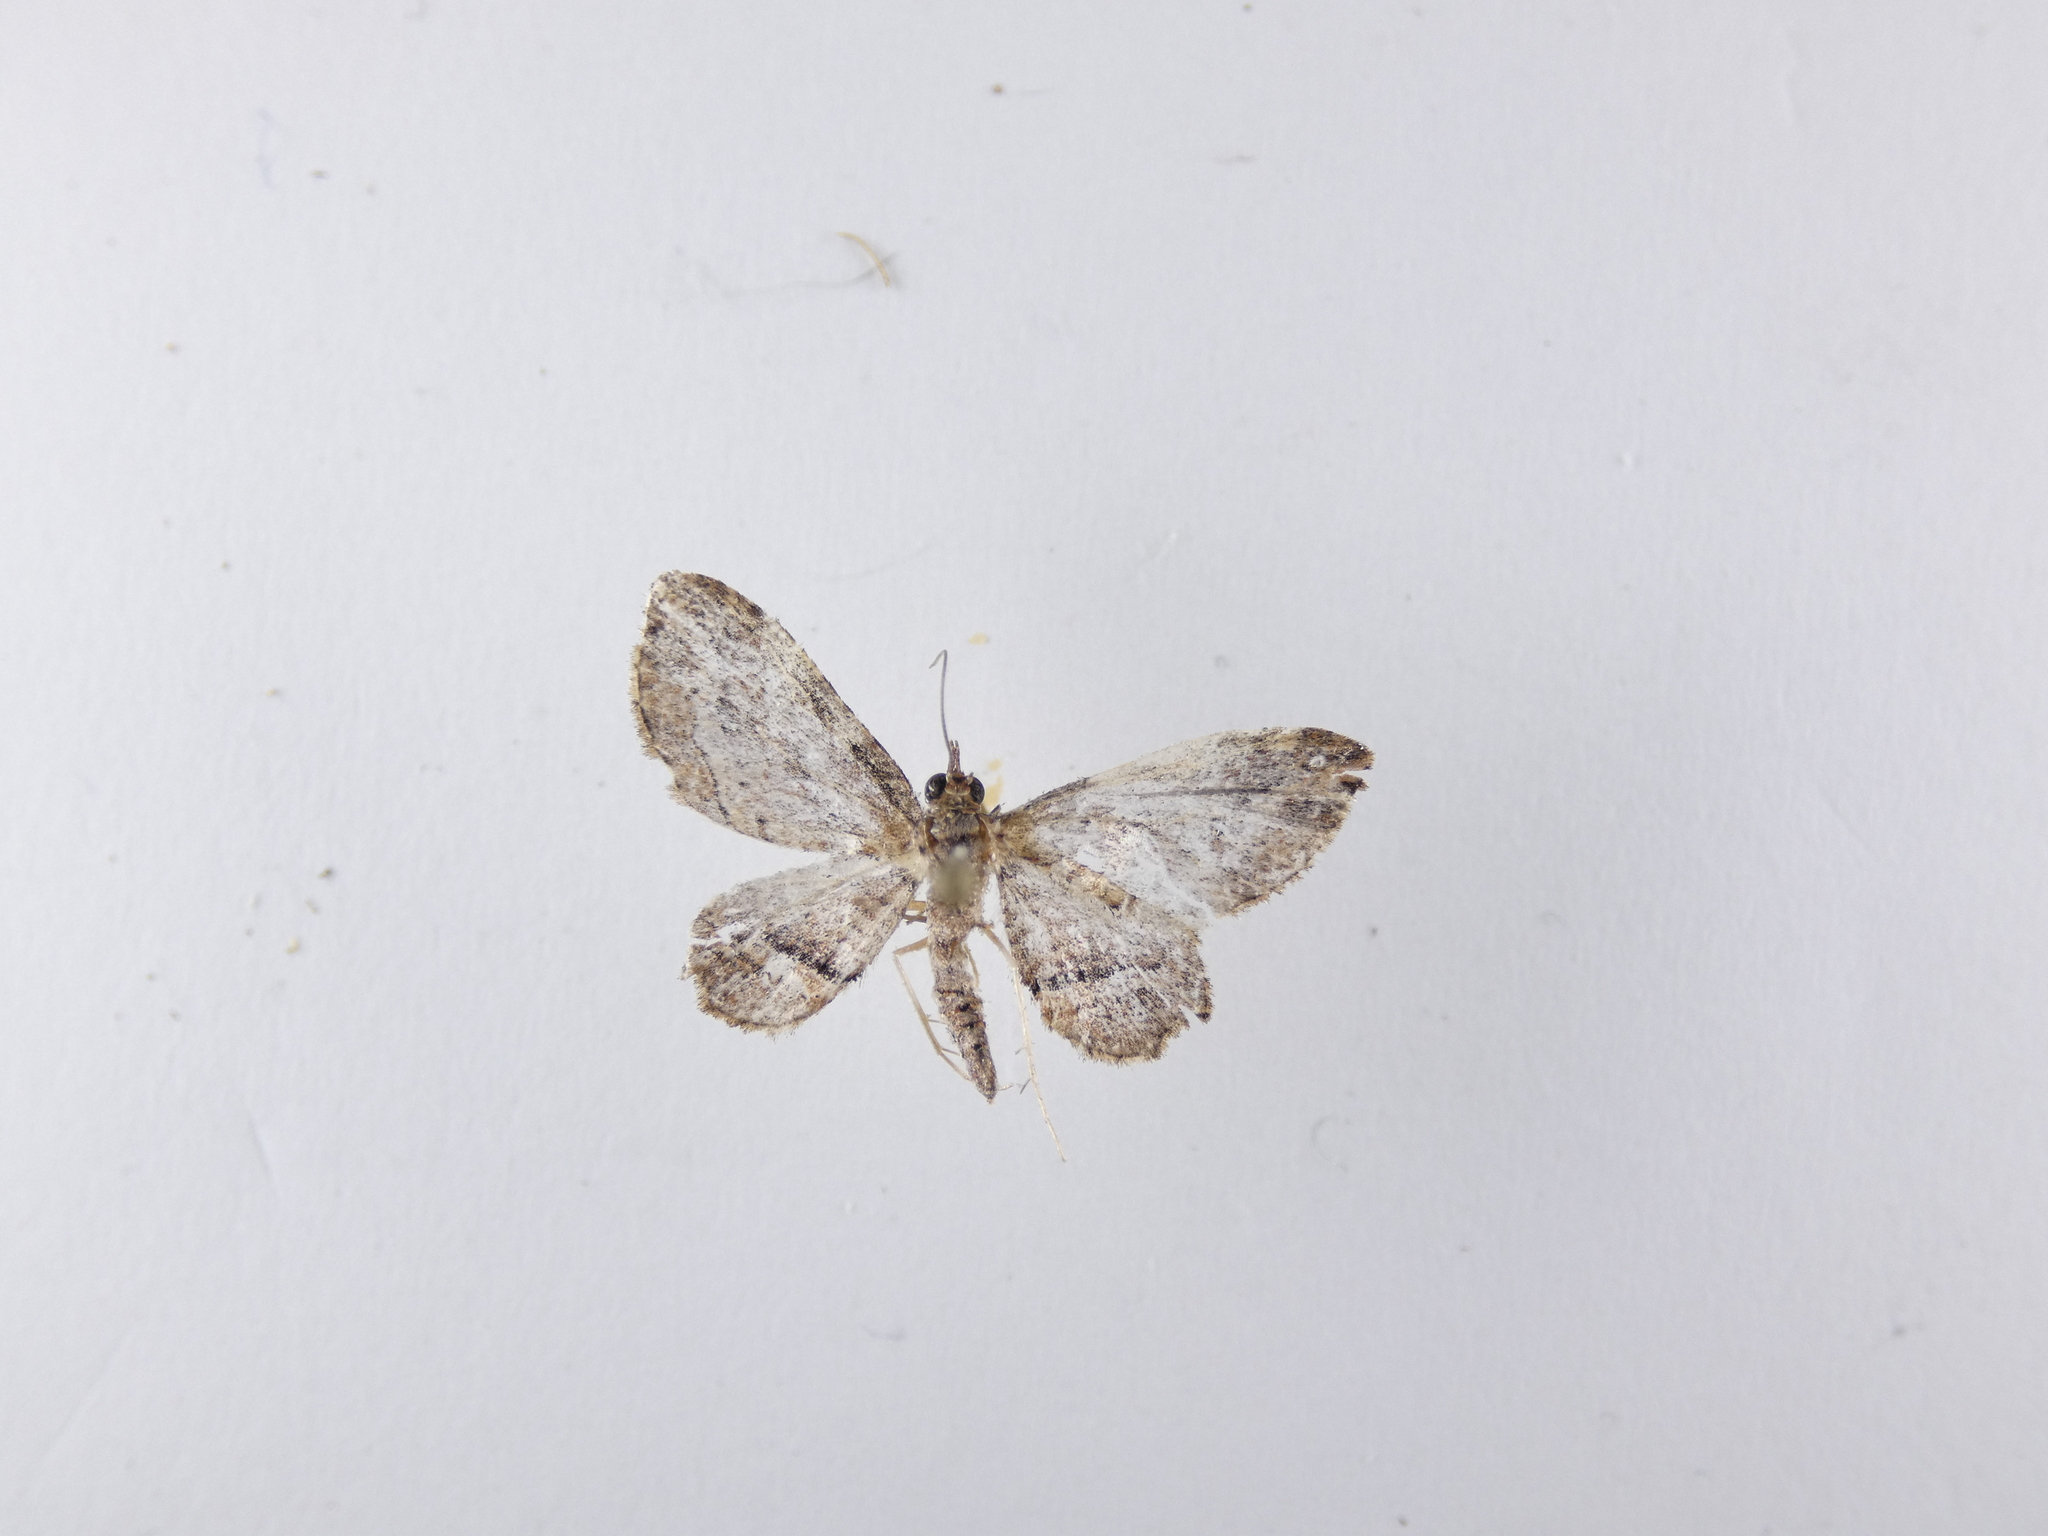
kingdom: Animalia
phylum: Arthropoda
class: Insecta
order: Lepidoptera
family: Geometridae
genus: Chloroclystis
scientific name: Chloroclystis filata
